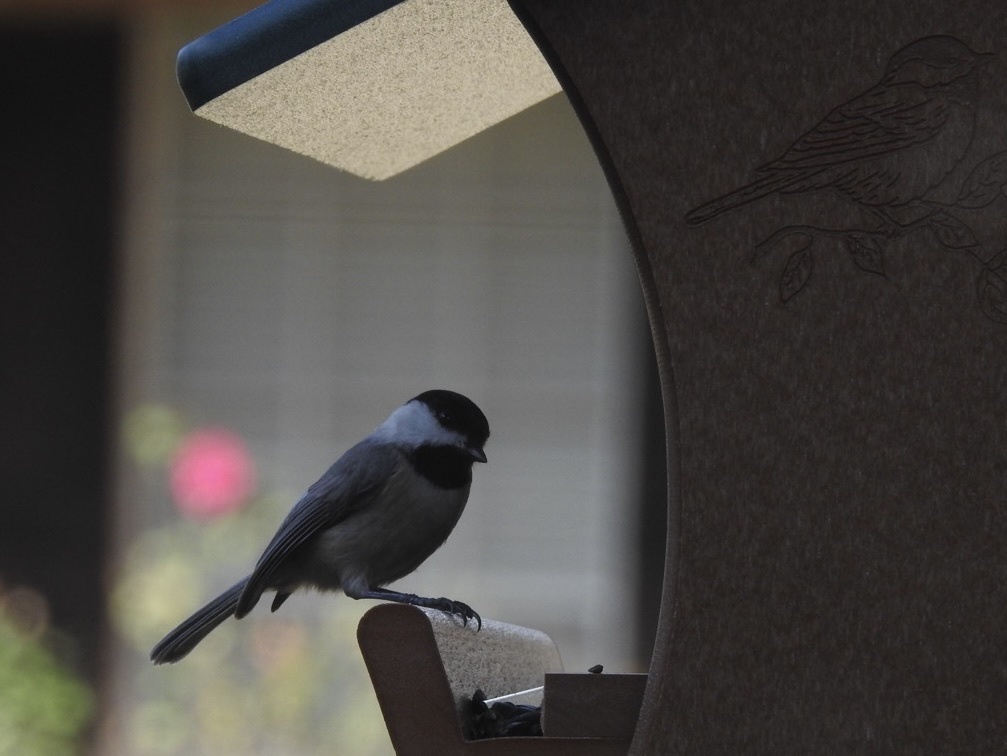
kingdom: Animalia
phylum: Chordata
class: Aves
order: Passeriformes
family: Paridae
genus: Poecile
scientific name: Poecile carolinensis
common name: Carolina chickadee
